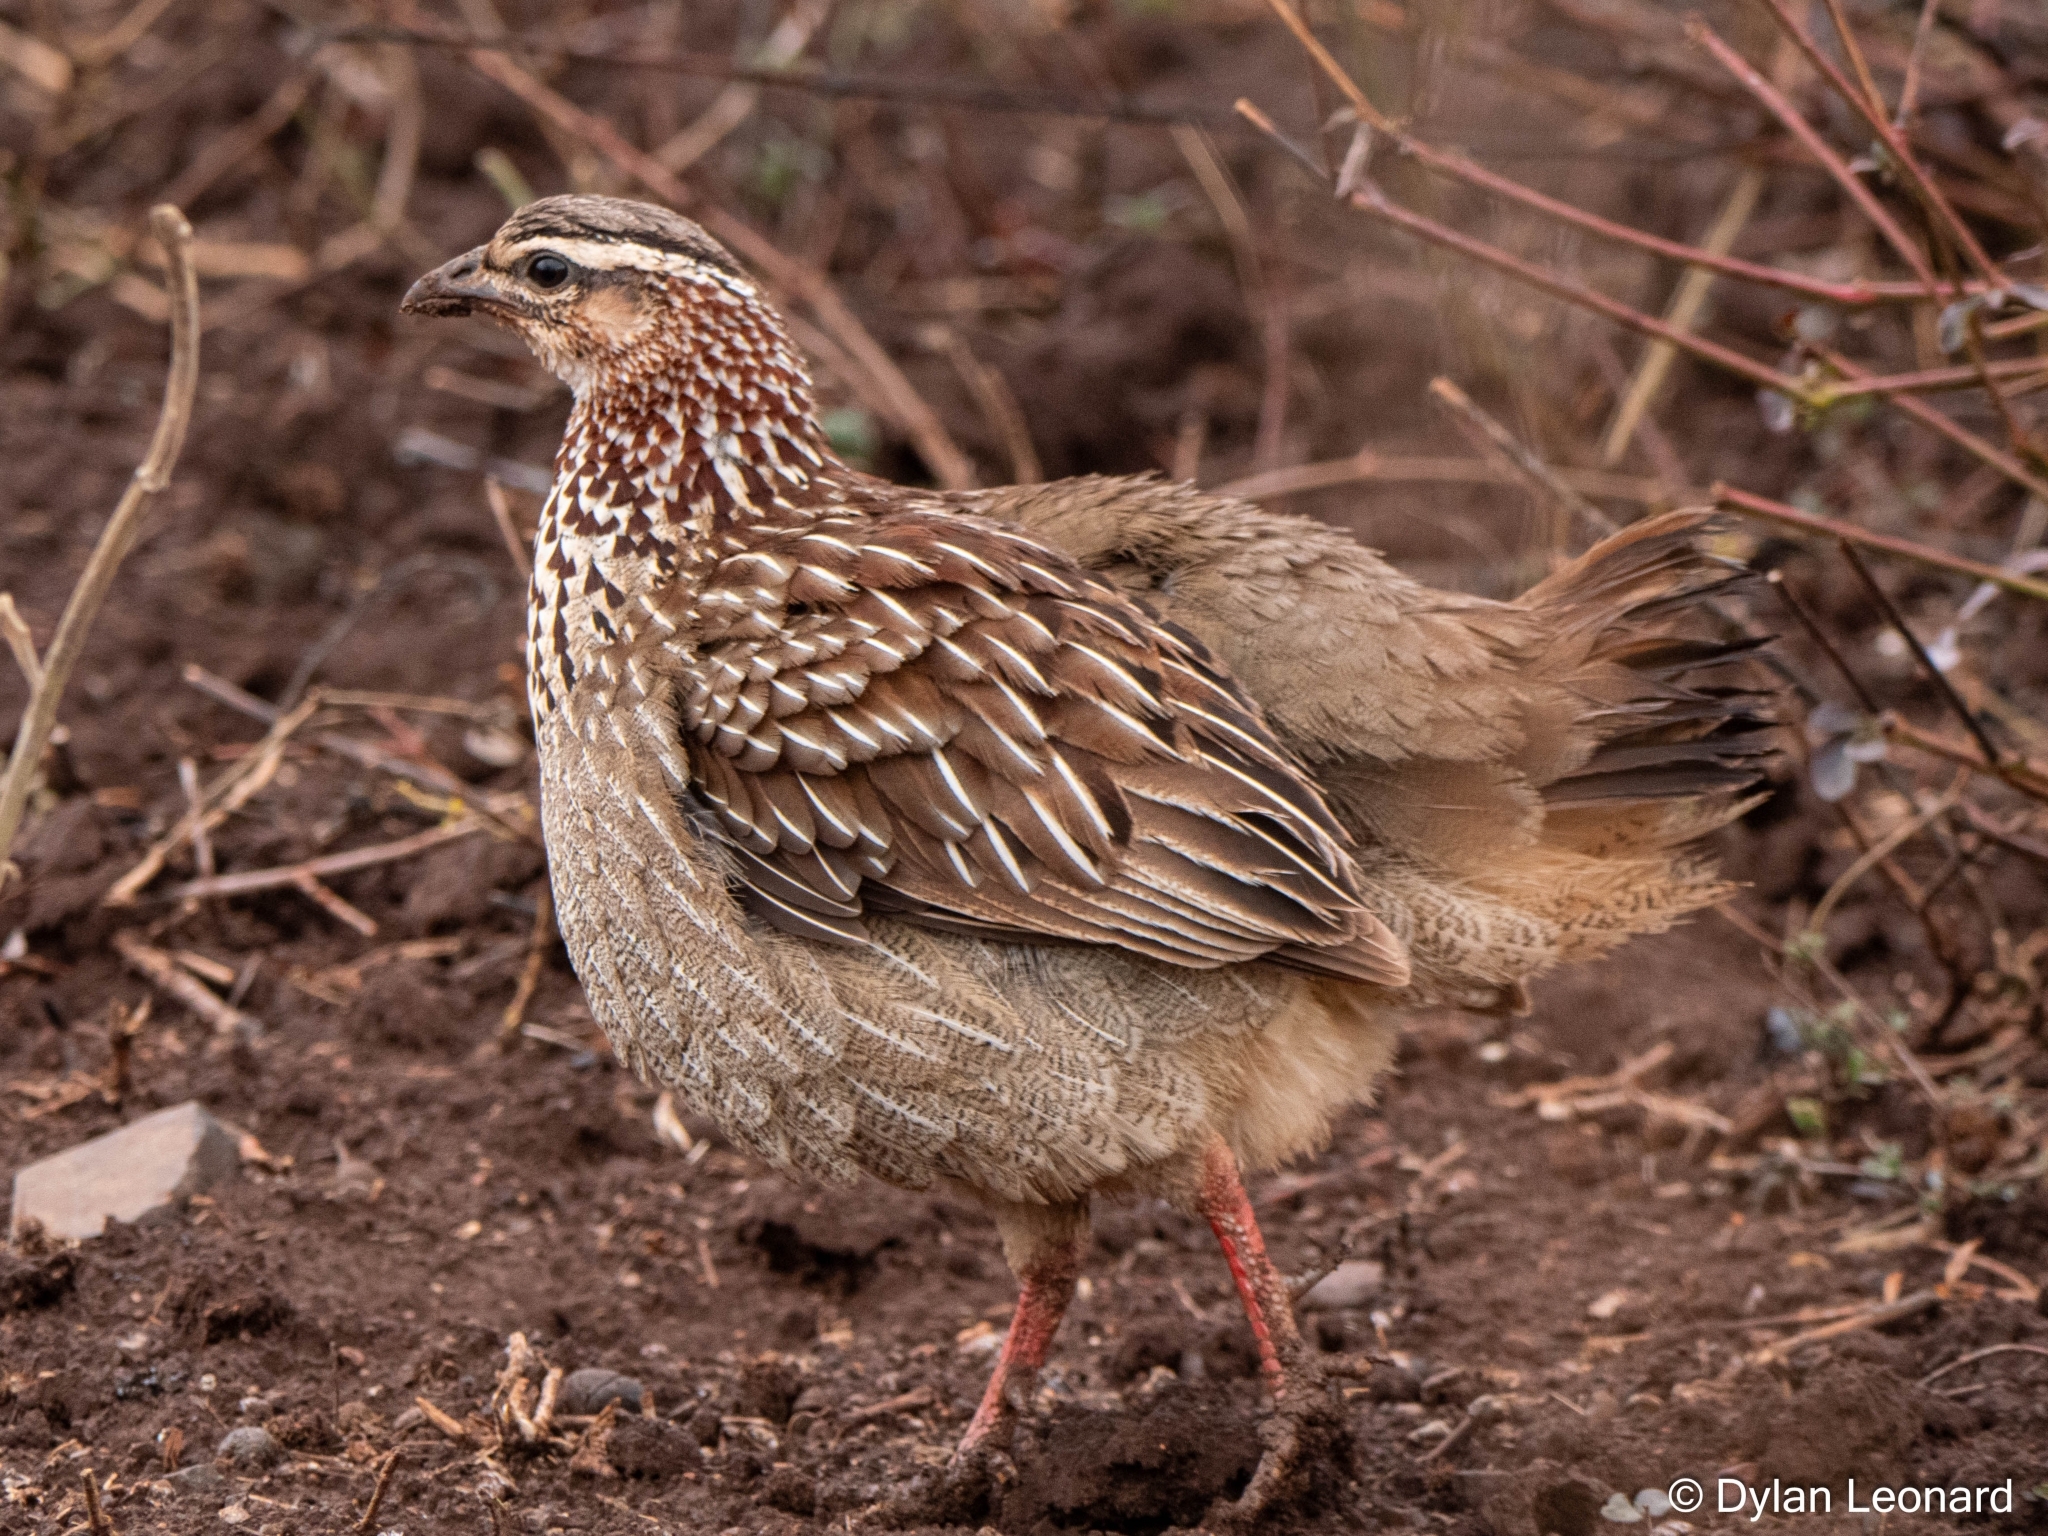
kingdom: Animalia
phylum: Chordata
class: Aves
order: Galliformes
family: Phasianidae
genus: Ortygornis
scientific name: Ortygornis sephaena
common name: Crested francolin
